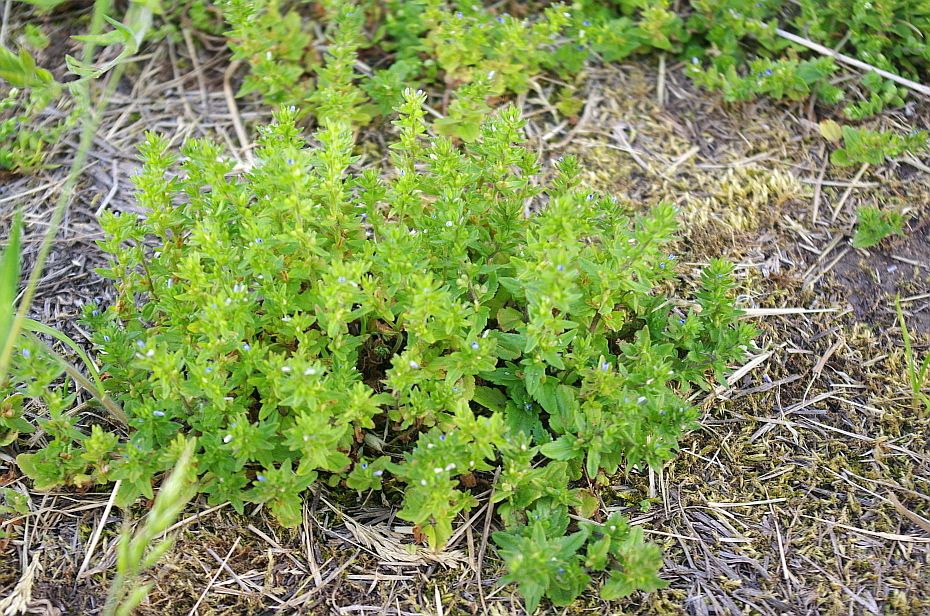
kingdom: Plantae
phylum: Tracheophyta
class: Magnoliopsida
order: Lamiales
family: Plantaginaceae
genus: Veronica
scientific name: Veronica arvensis
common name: Corn speedwell
